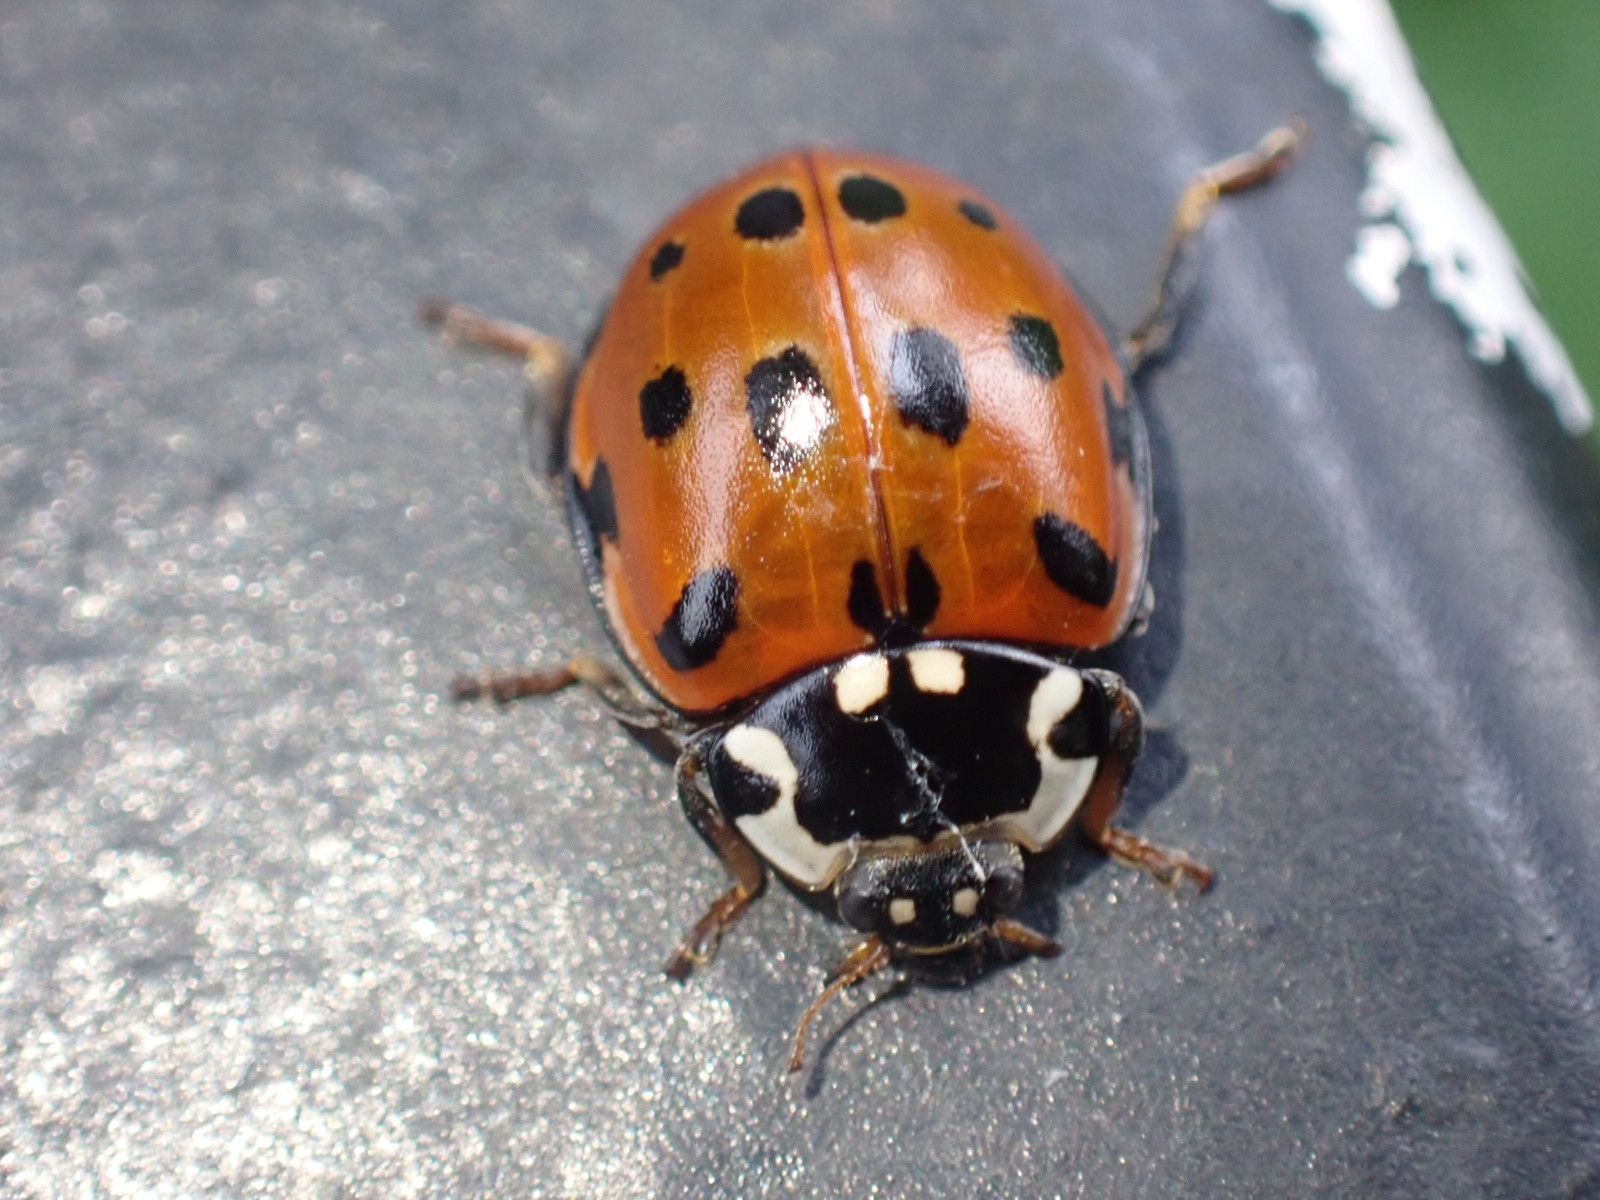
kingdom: Animalia
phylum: Arthropoda
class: Insecta
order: Coleoptera
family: Coccinellidae
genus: Anatis
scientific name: Anatis ocellata
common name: Eyed ladybird
